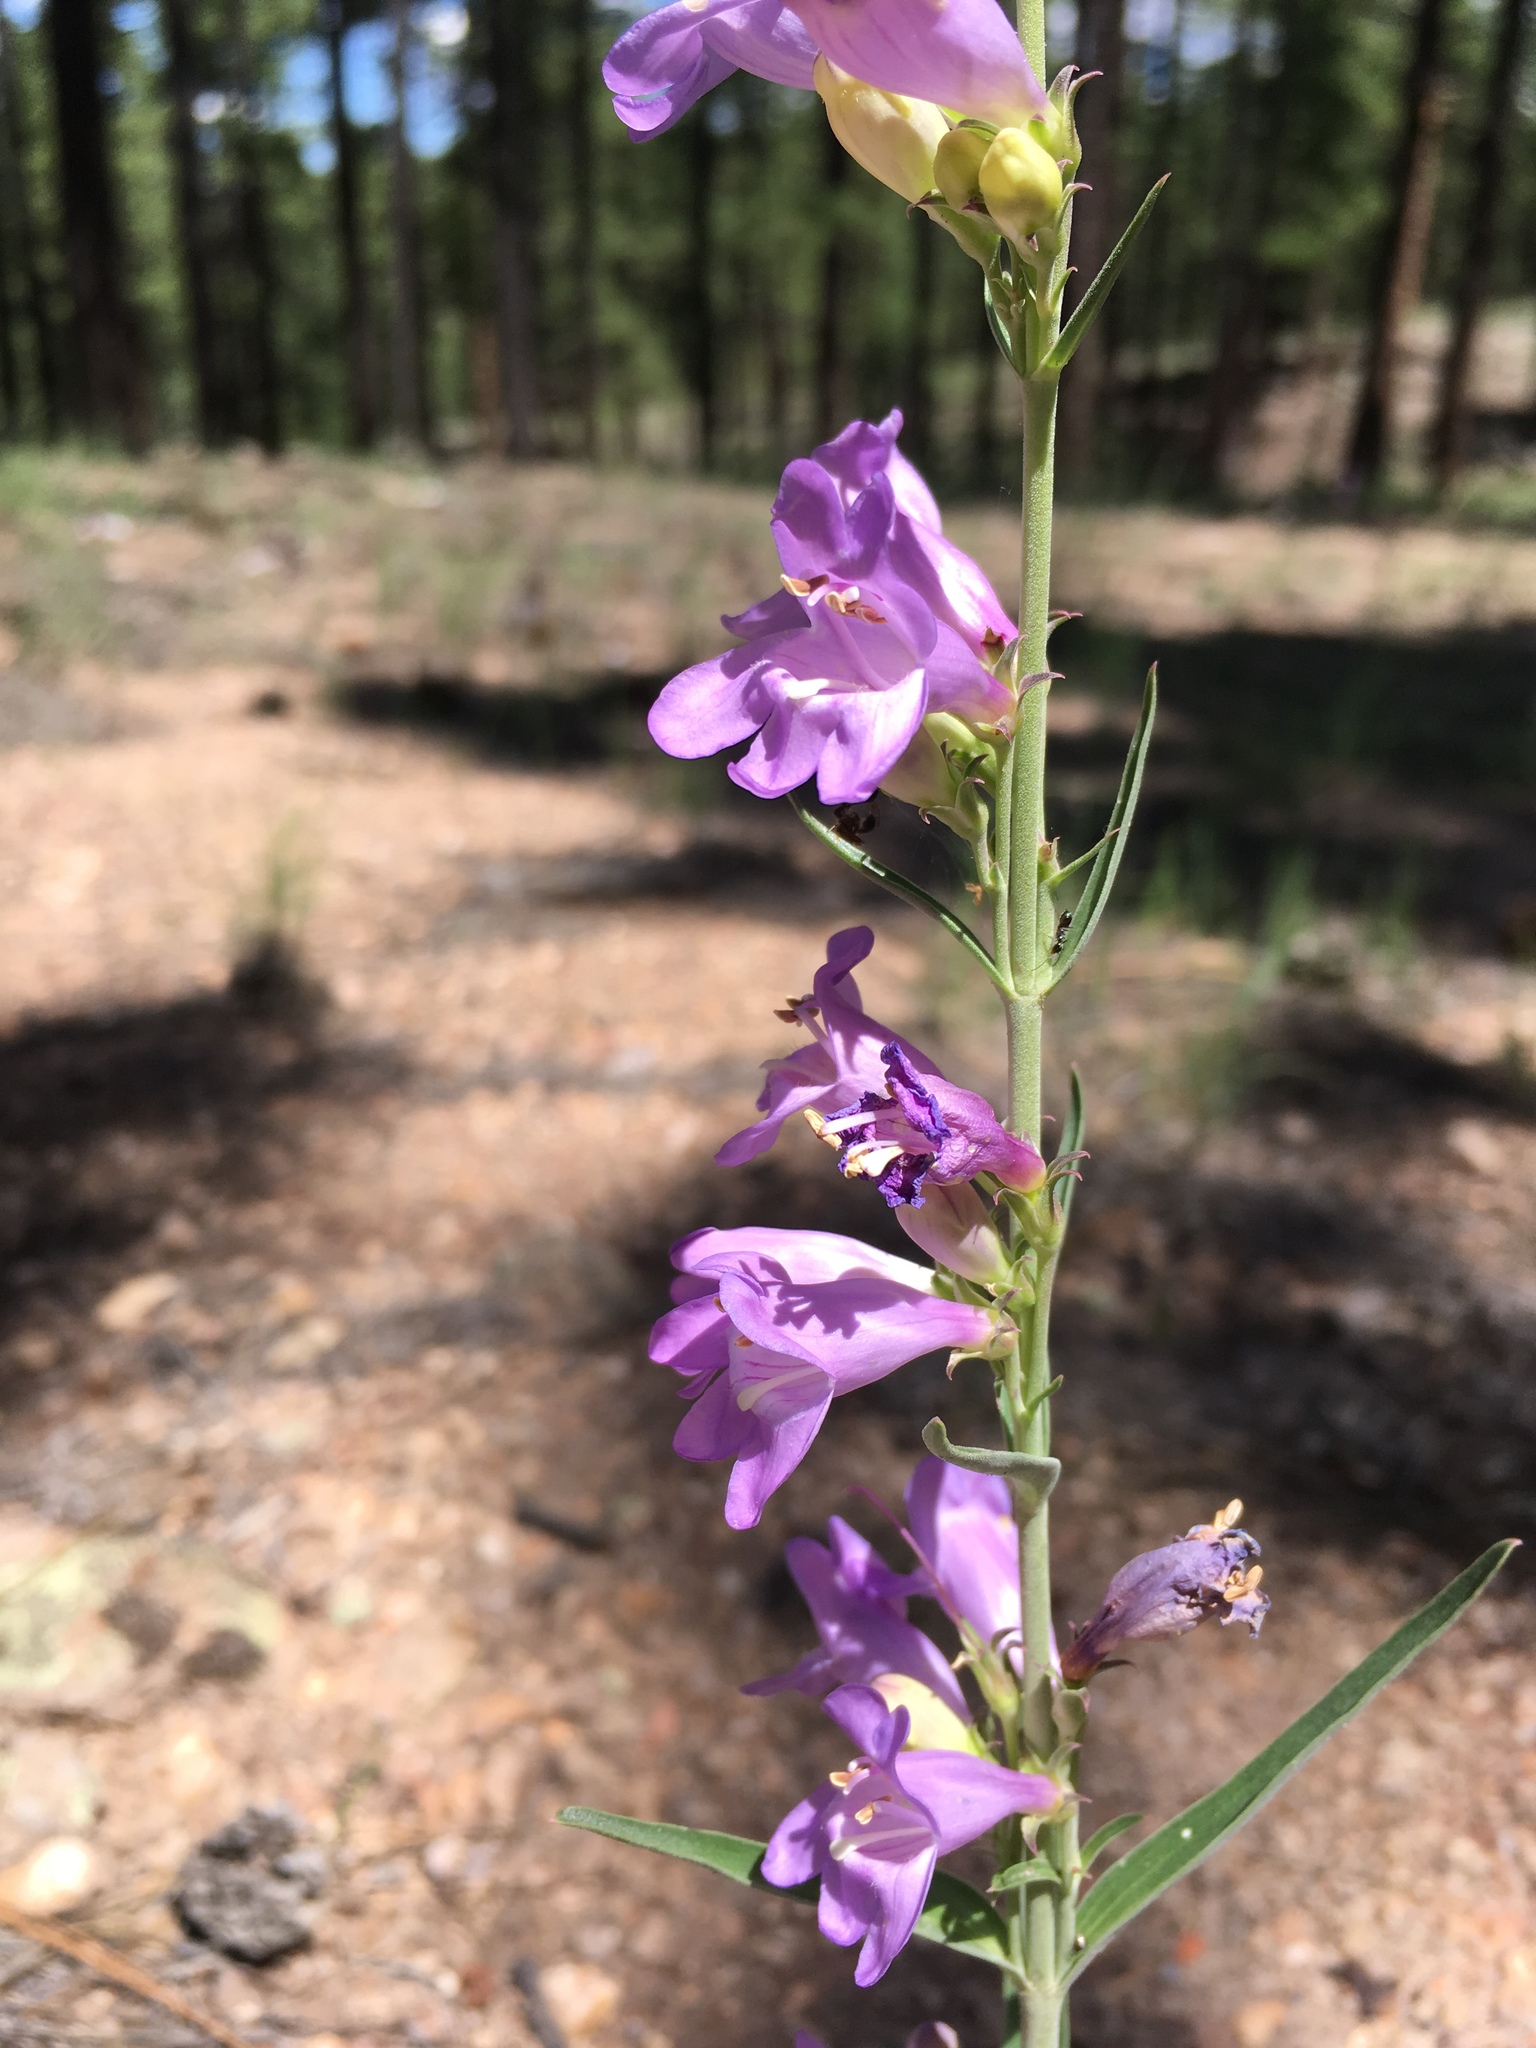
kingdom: Plantae
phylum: Tracheophyta
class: Magnoliopsida
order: Lamiales
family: Plantaginaceae
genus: Penstemon
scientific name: Penstemon virgatus
